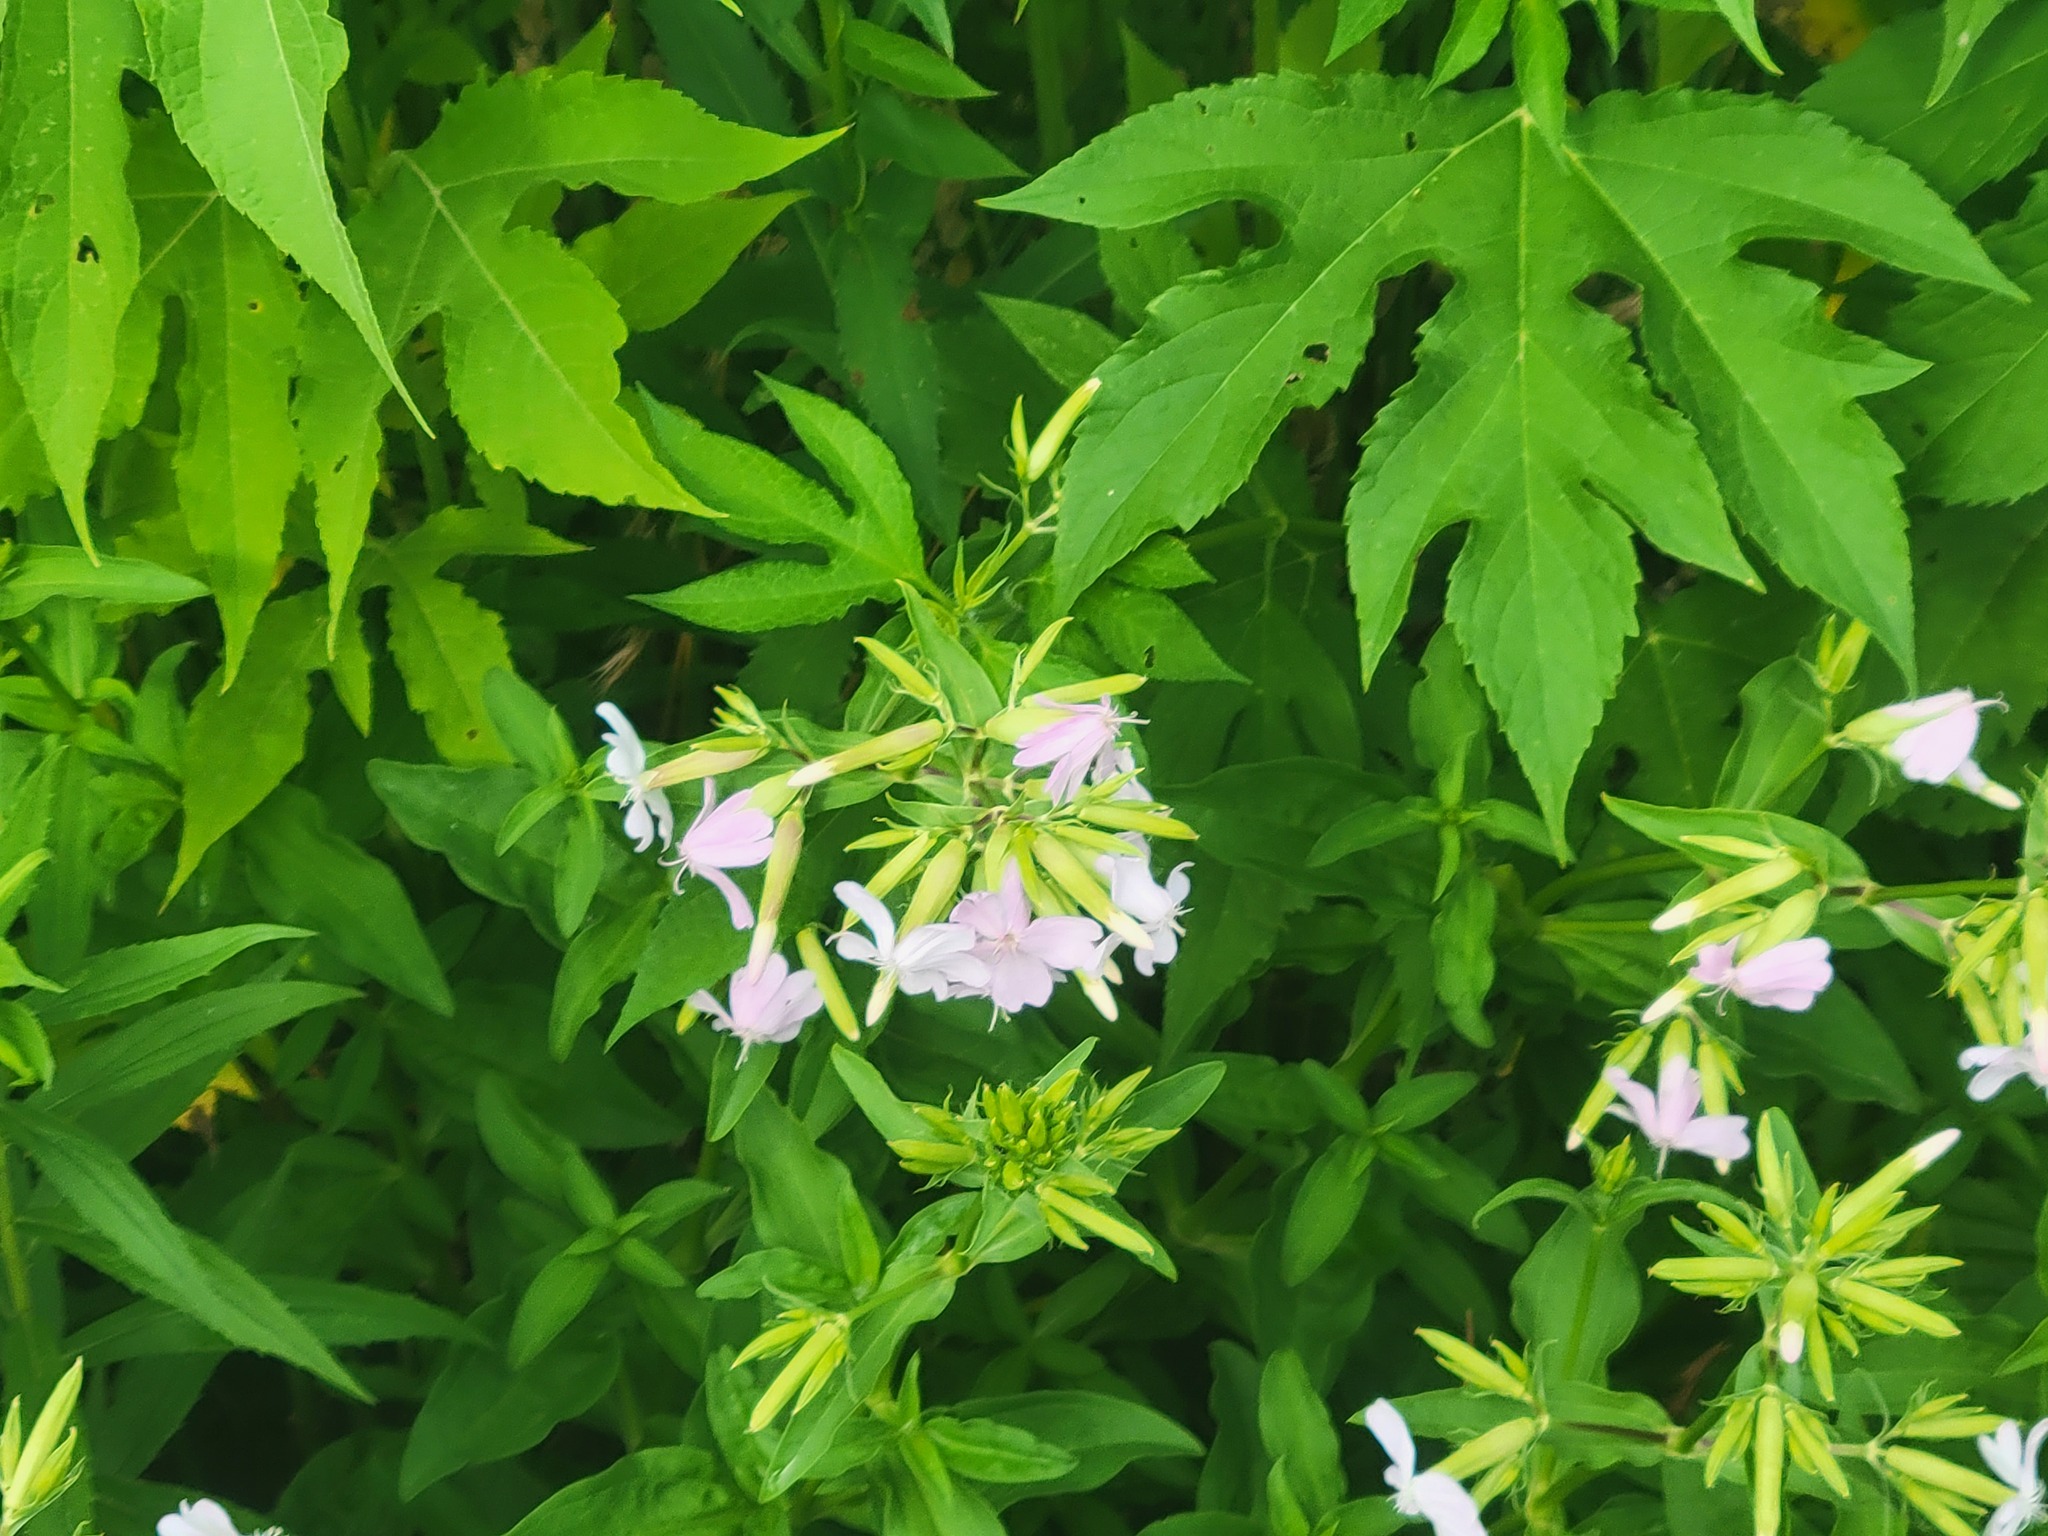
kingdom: Plantae
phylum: Tracheophyta
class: Magnoliopsida
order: Caryophyllales
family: Caryophyllaceae
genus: Saponaria
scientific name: Saponaria officinalis
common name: Soapwort
